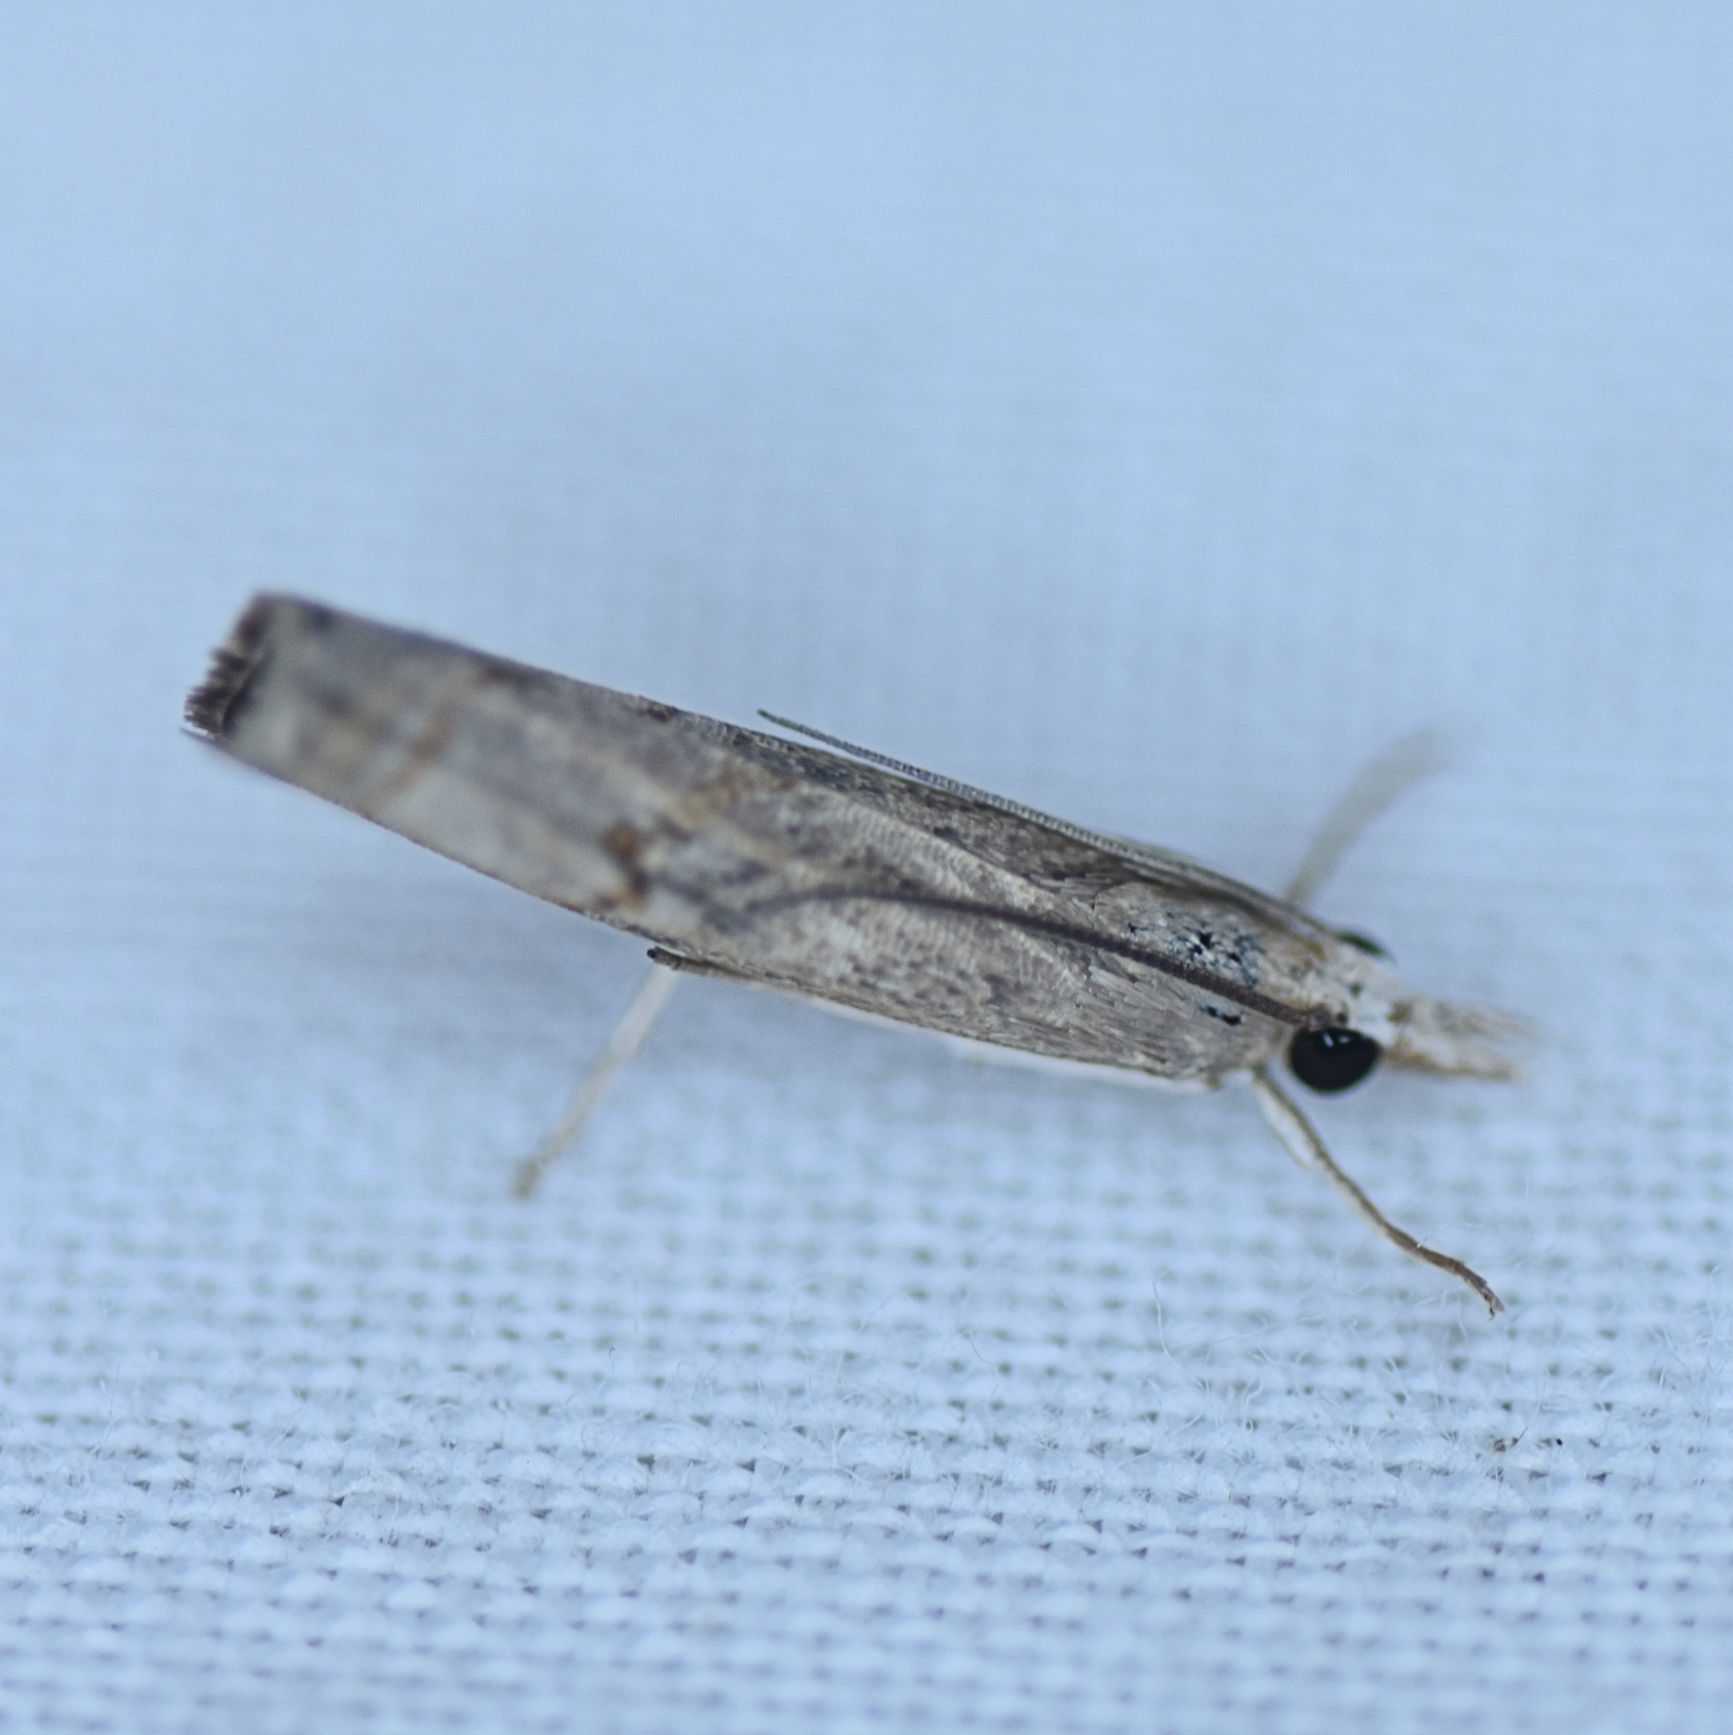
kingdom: Animalia
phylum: Arthropoda
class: Insecta
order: Lepidoptera
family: Crambidae
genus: Parapediasia
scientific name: Parapediasia teterellus
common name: Bluegrass webworm moth
